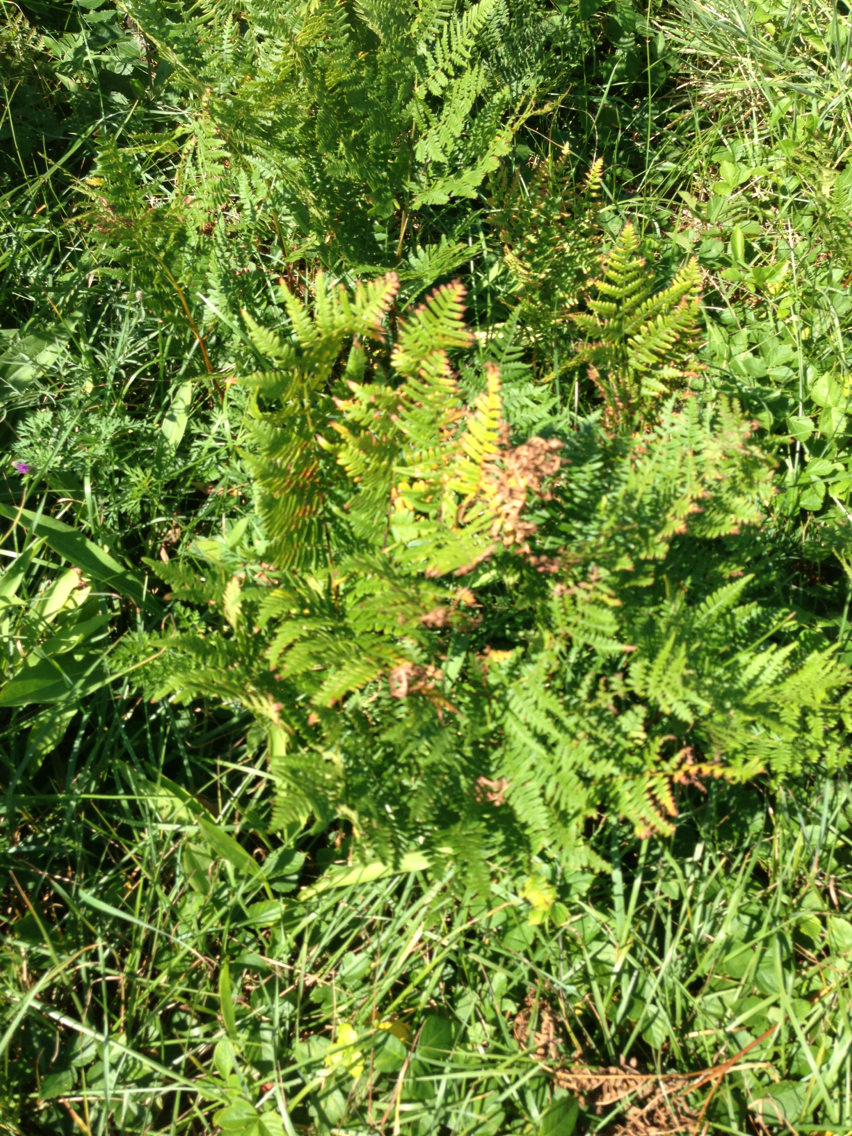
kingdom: Plantae
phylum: Tracheophyta
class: Polypodiopsida
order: Polypodiales
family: Dennstaedtiaceae
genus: Pteridium
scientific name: Pteridium aquilinum
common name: Bracken
